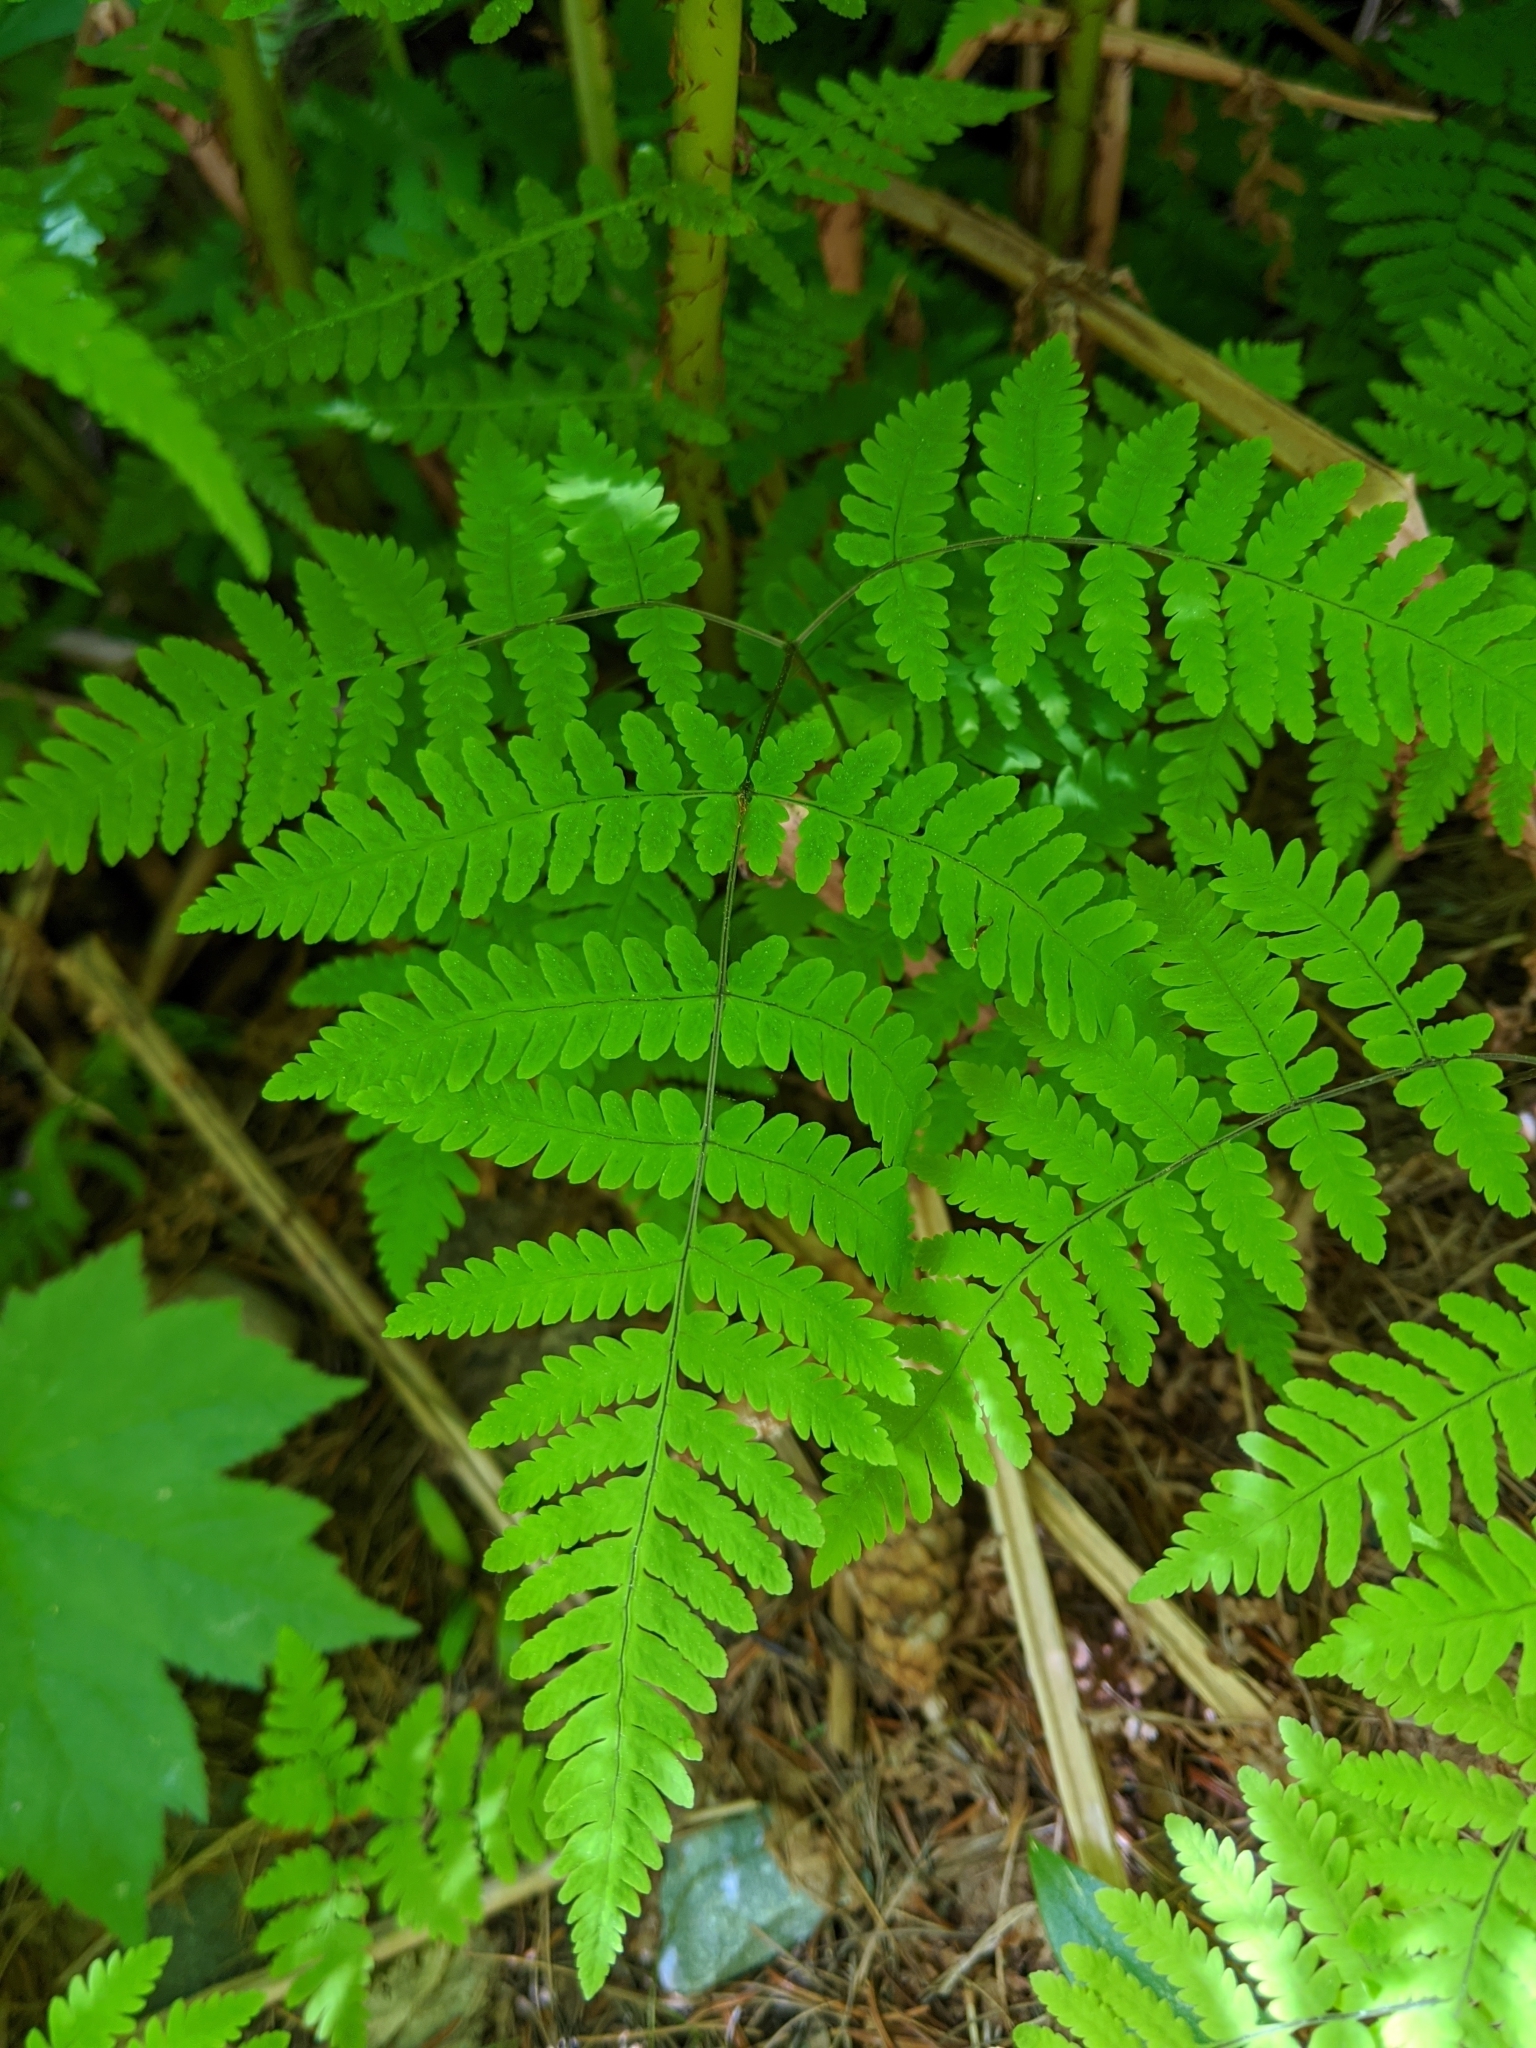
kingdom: Plantae
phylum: Tracheophyta
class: Polypodiopsida
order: Polypodiales
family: Cystopteridaceae
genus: Gymnocarpium
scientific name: Gymnocarpium dryopteris
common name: Oak fern
